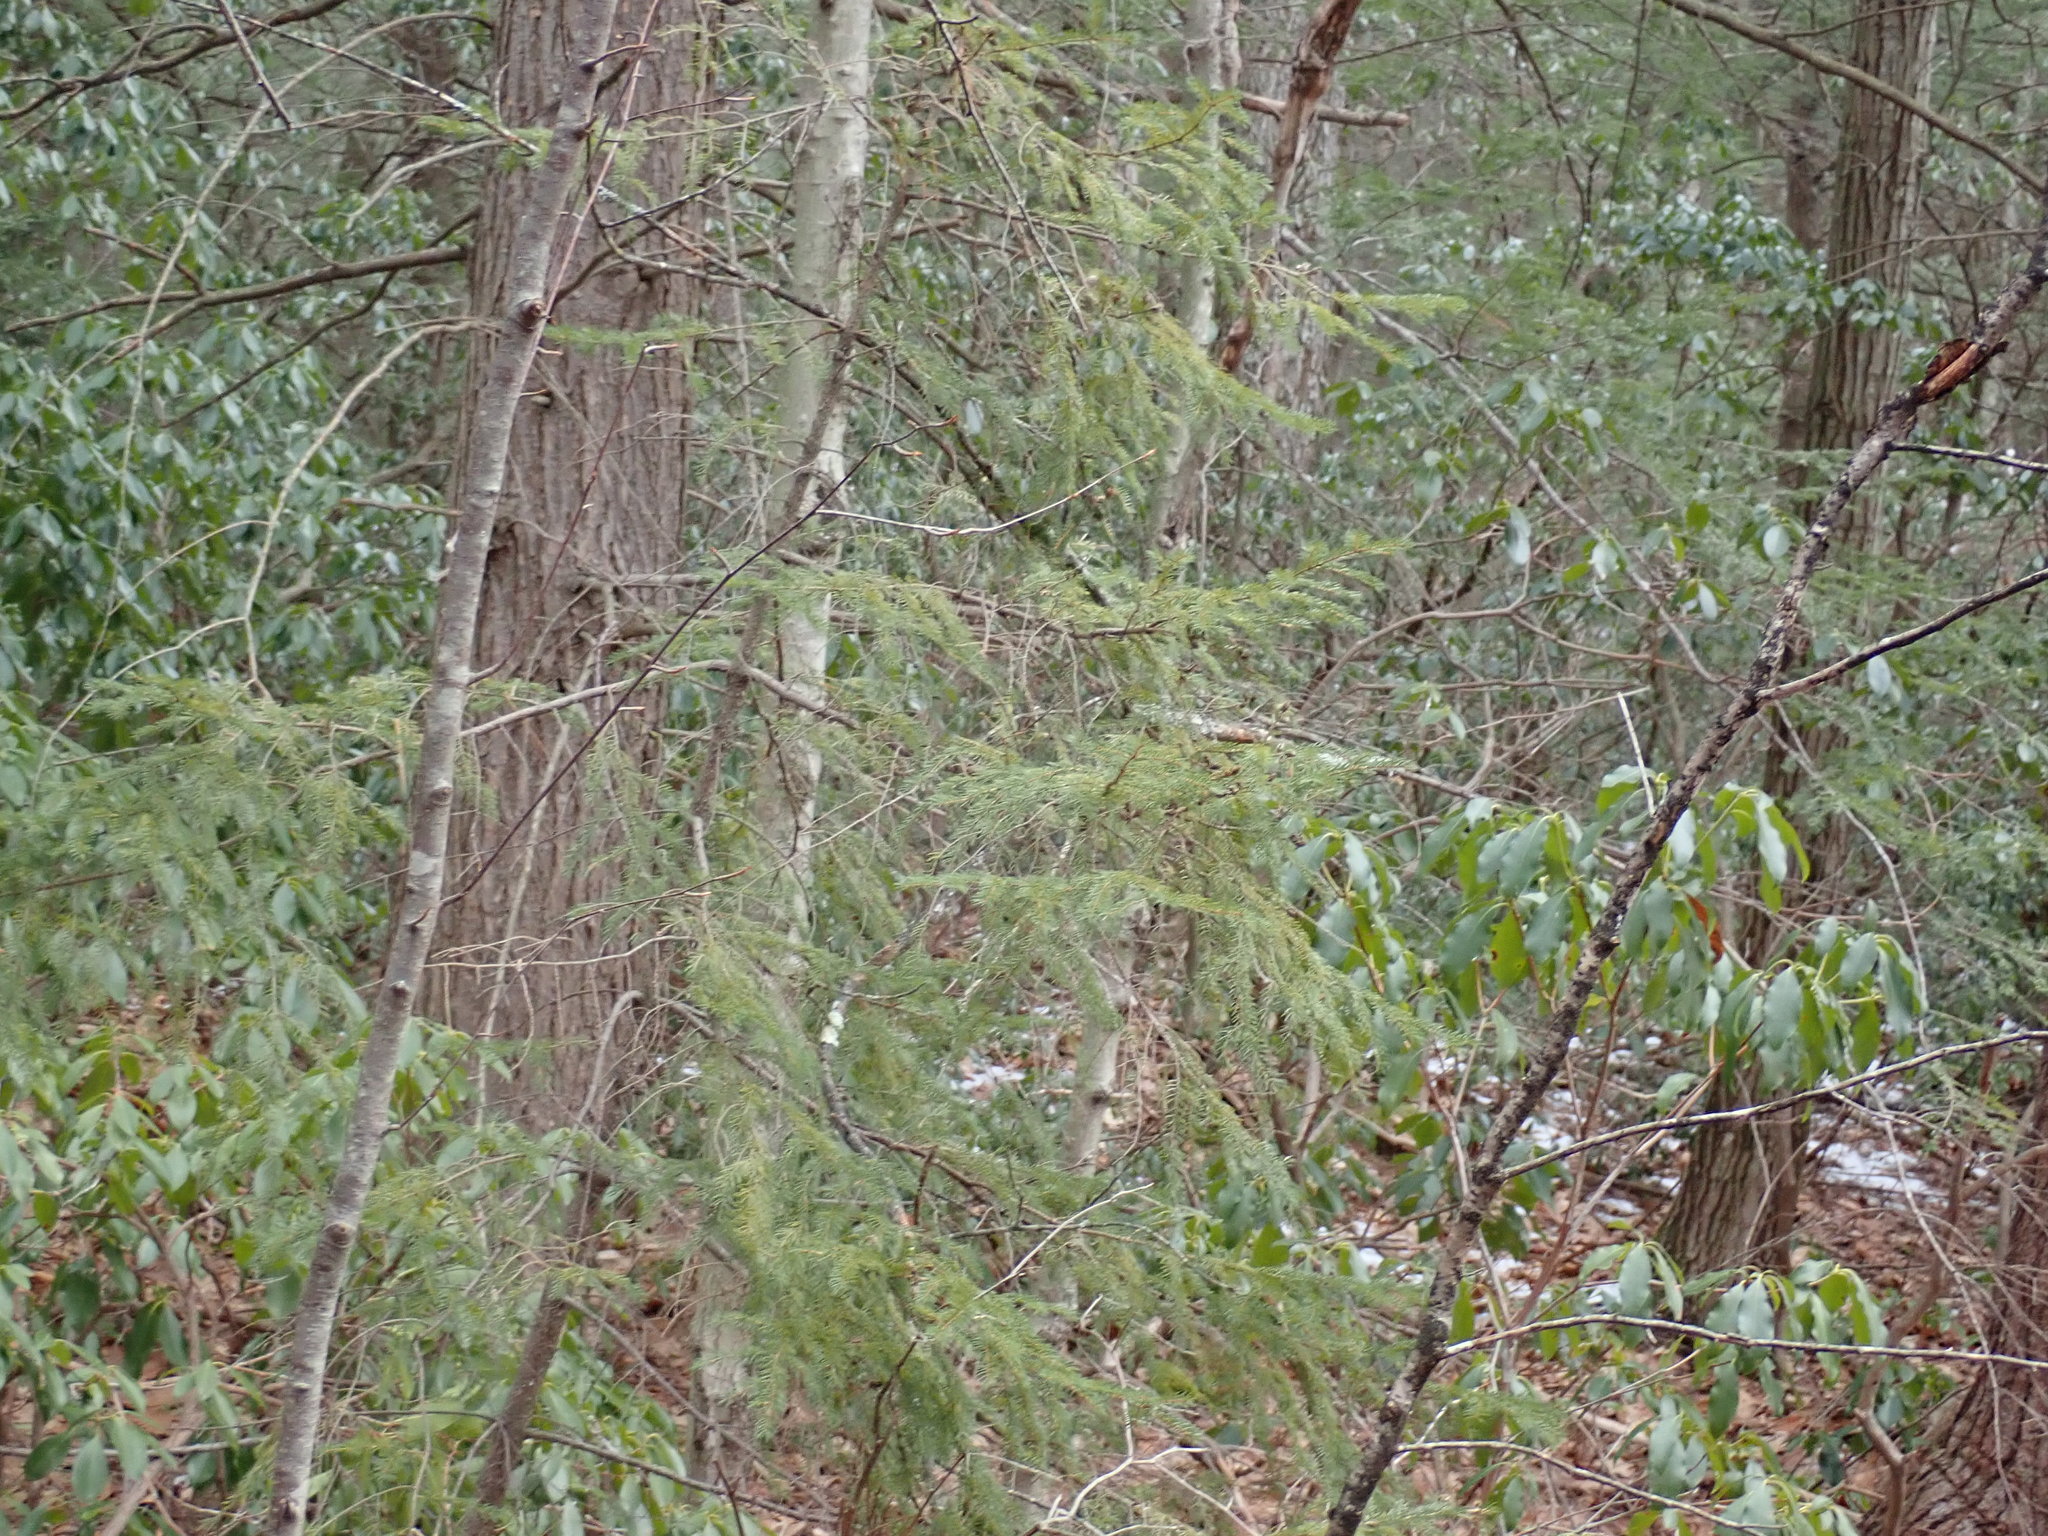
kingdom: Plantae
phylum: Tracheophyta
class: Pinopsida
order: Pinales
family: Pinaceae
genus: Picea
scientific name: Picea mariana
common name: Black spruce
